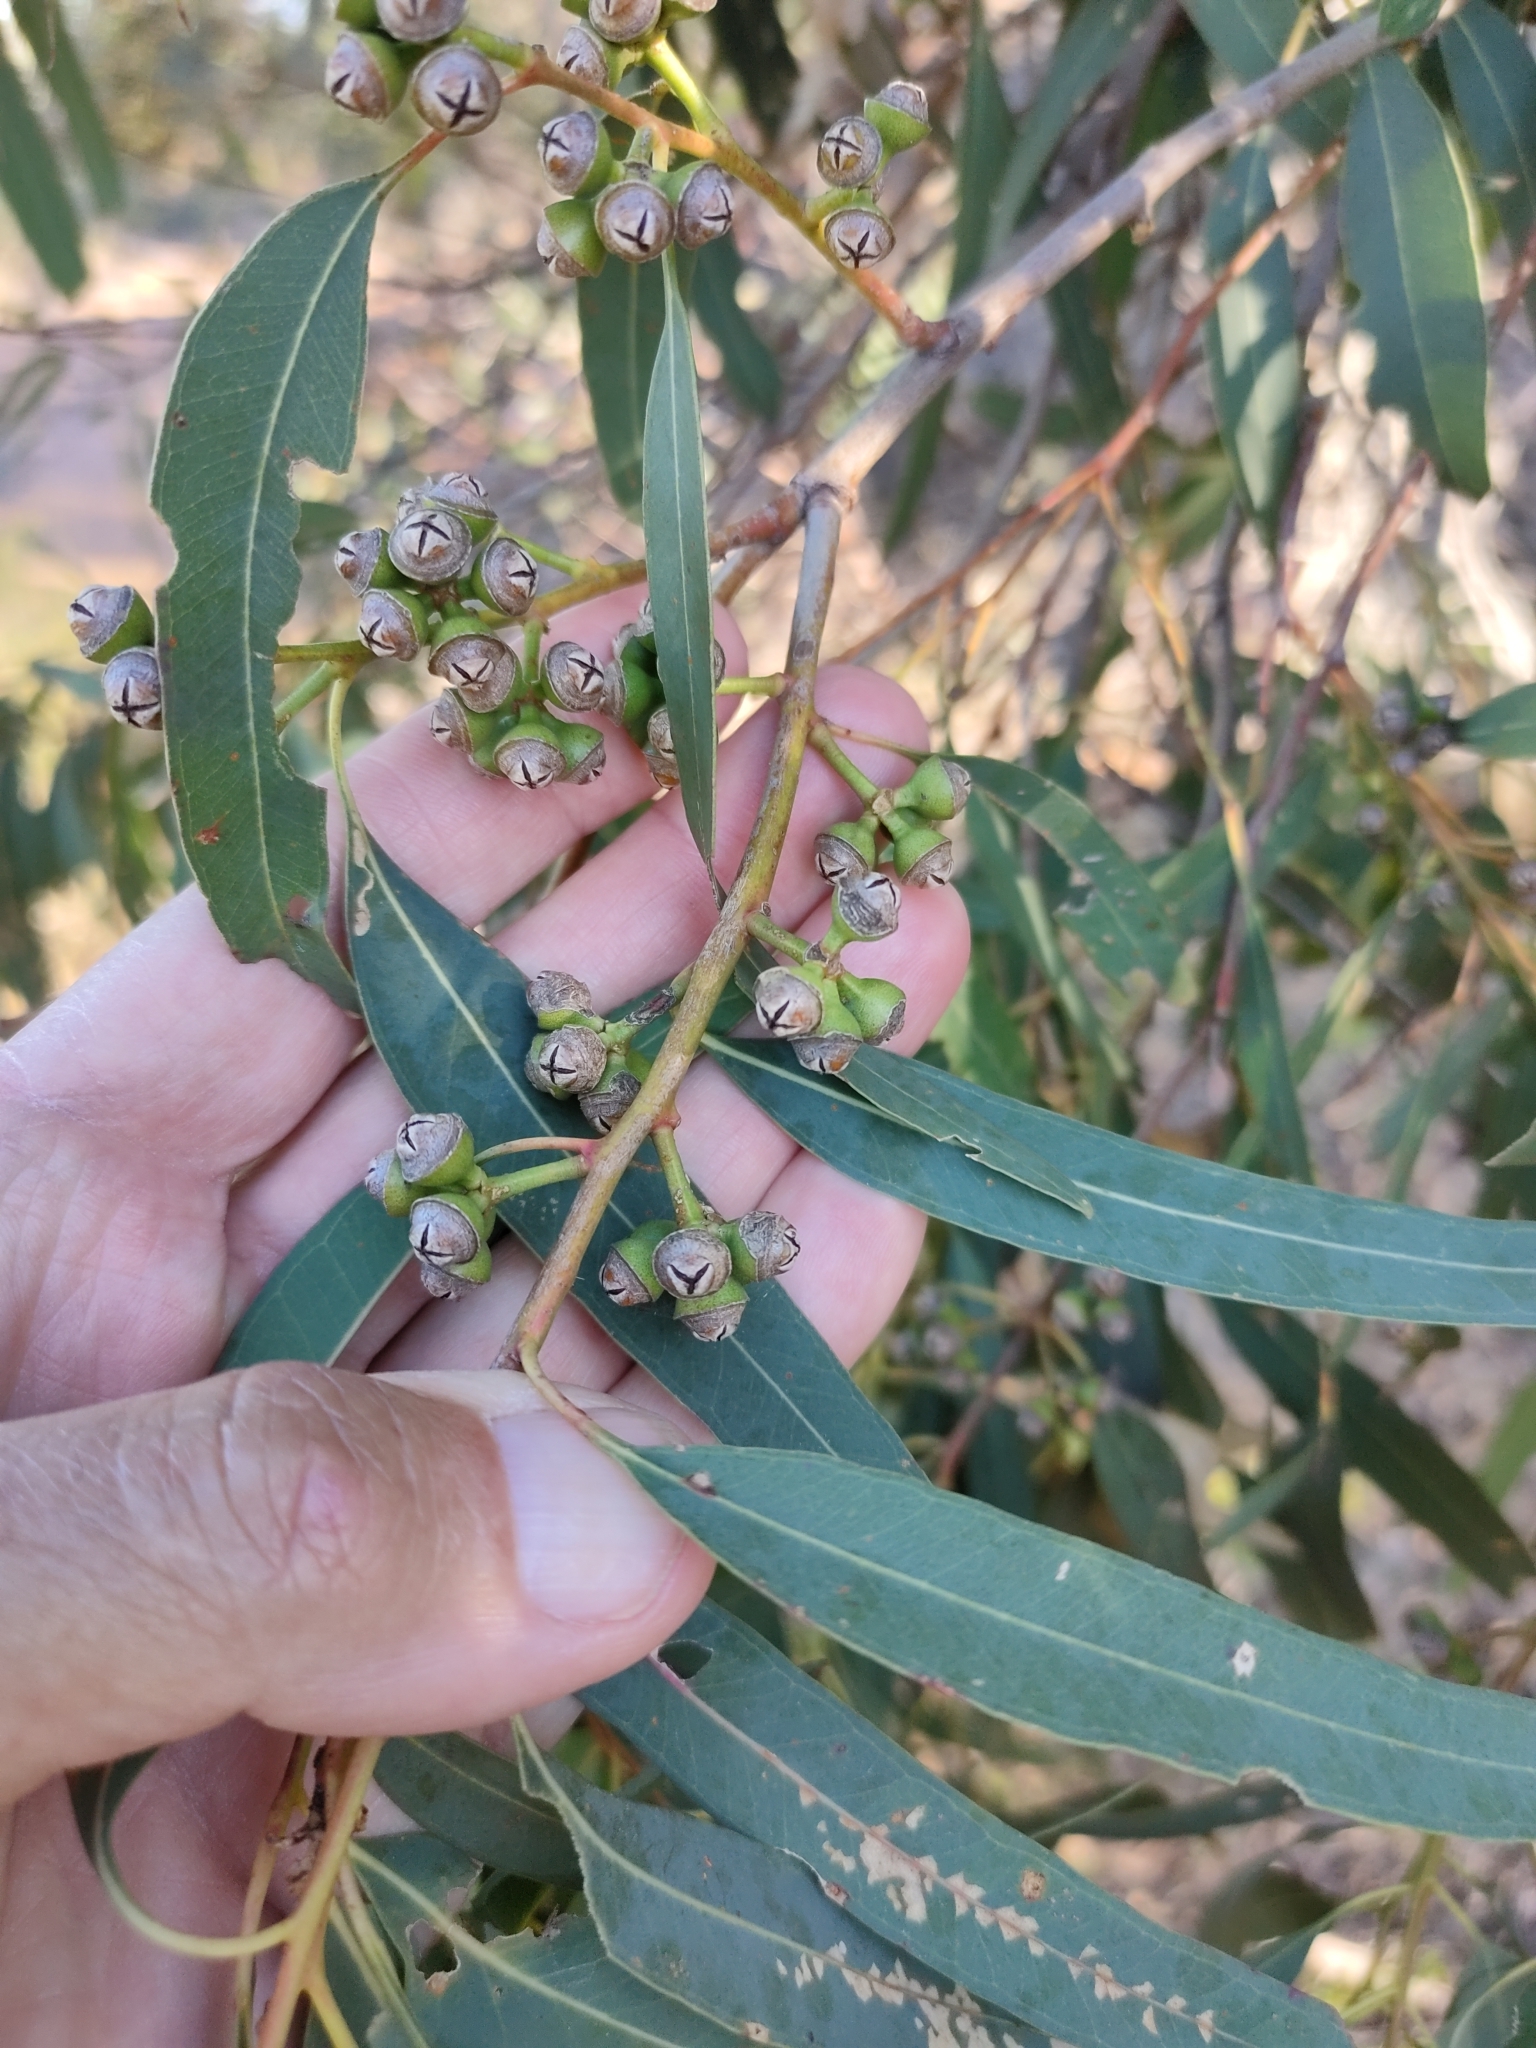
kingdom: Plantae
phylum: Tracheophyta
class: Magnoliopsida
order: Myrtales
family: Myrtaceae
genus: Eucalyptus
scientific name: Eucalyptus exserta
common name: Peppermint-bendo
